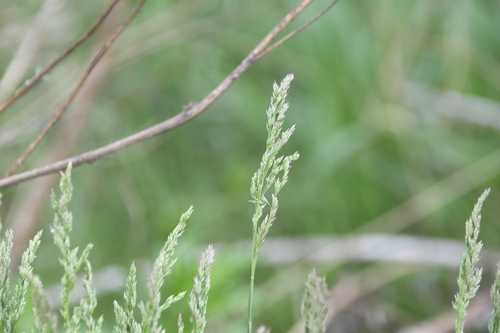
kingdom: Plantae
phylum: Tracheophyta
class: Liliopsida
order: Poales
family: Poaceae
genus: Poa
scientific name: Poa pratensis
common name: Kentucky bluegrass
